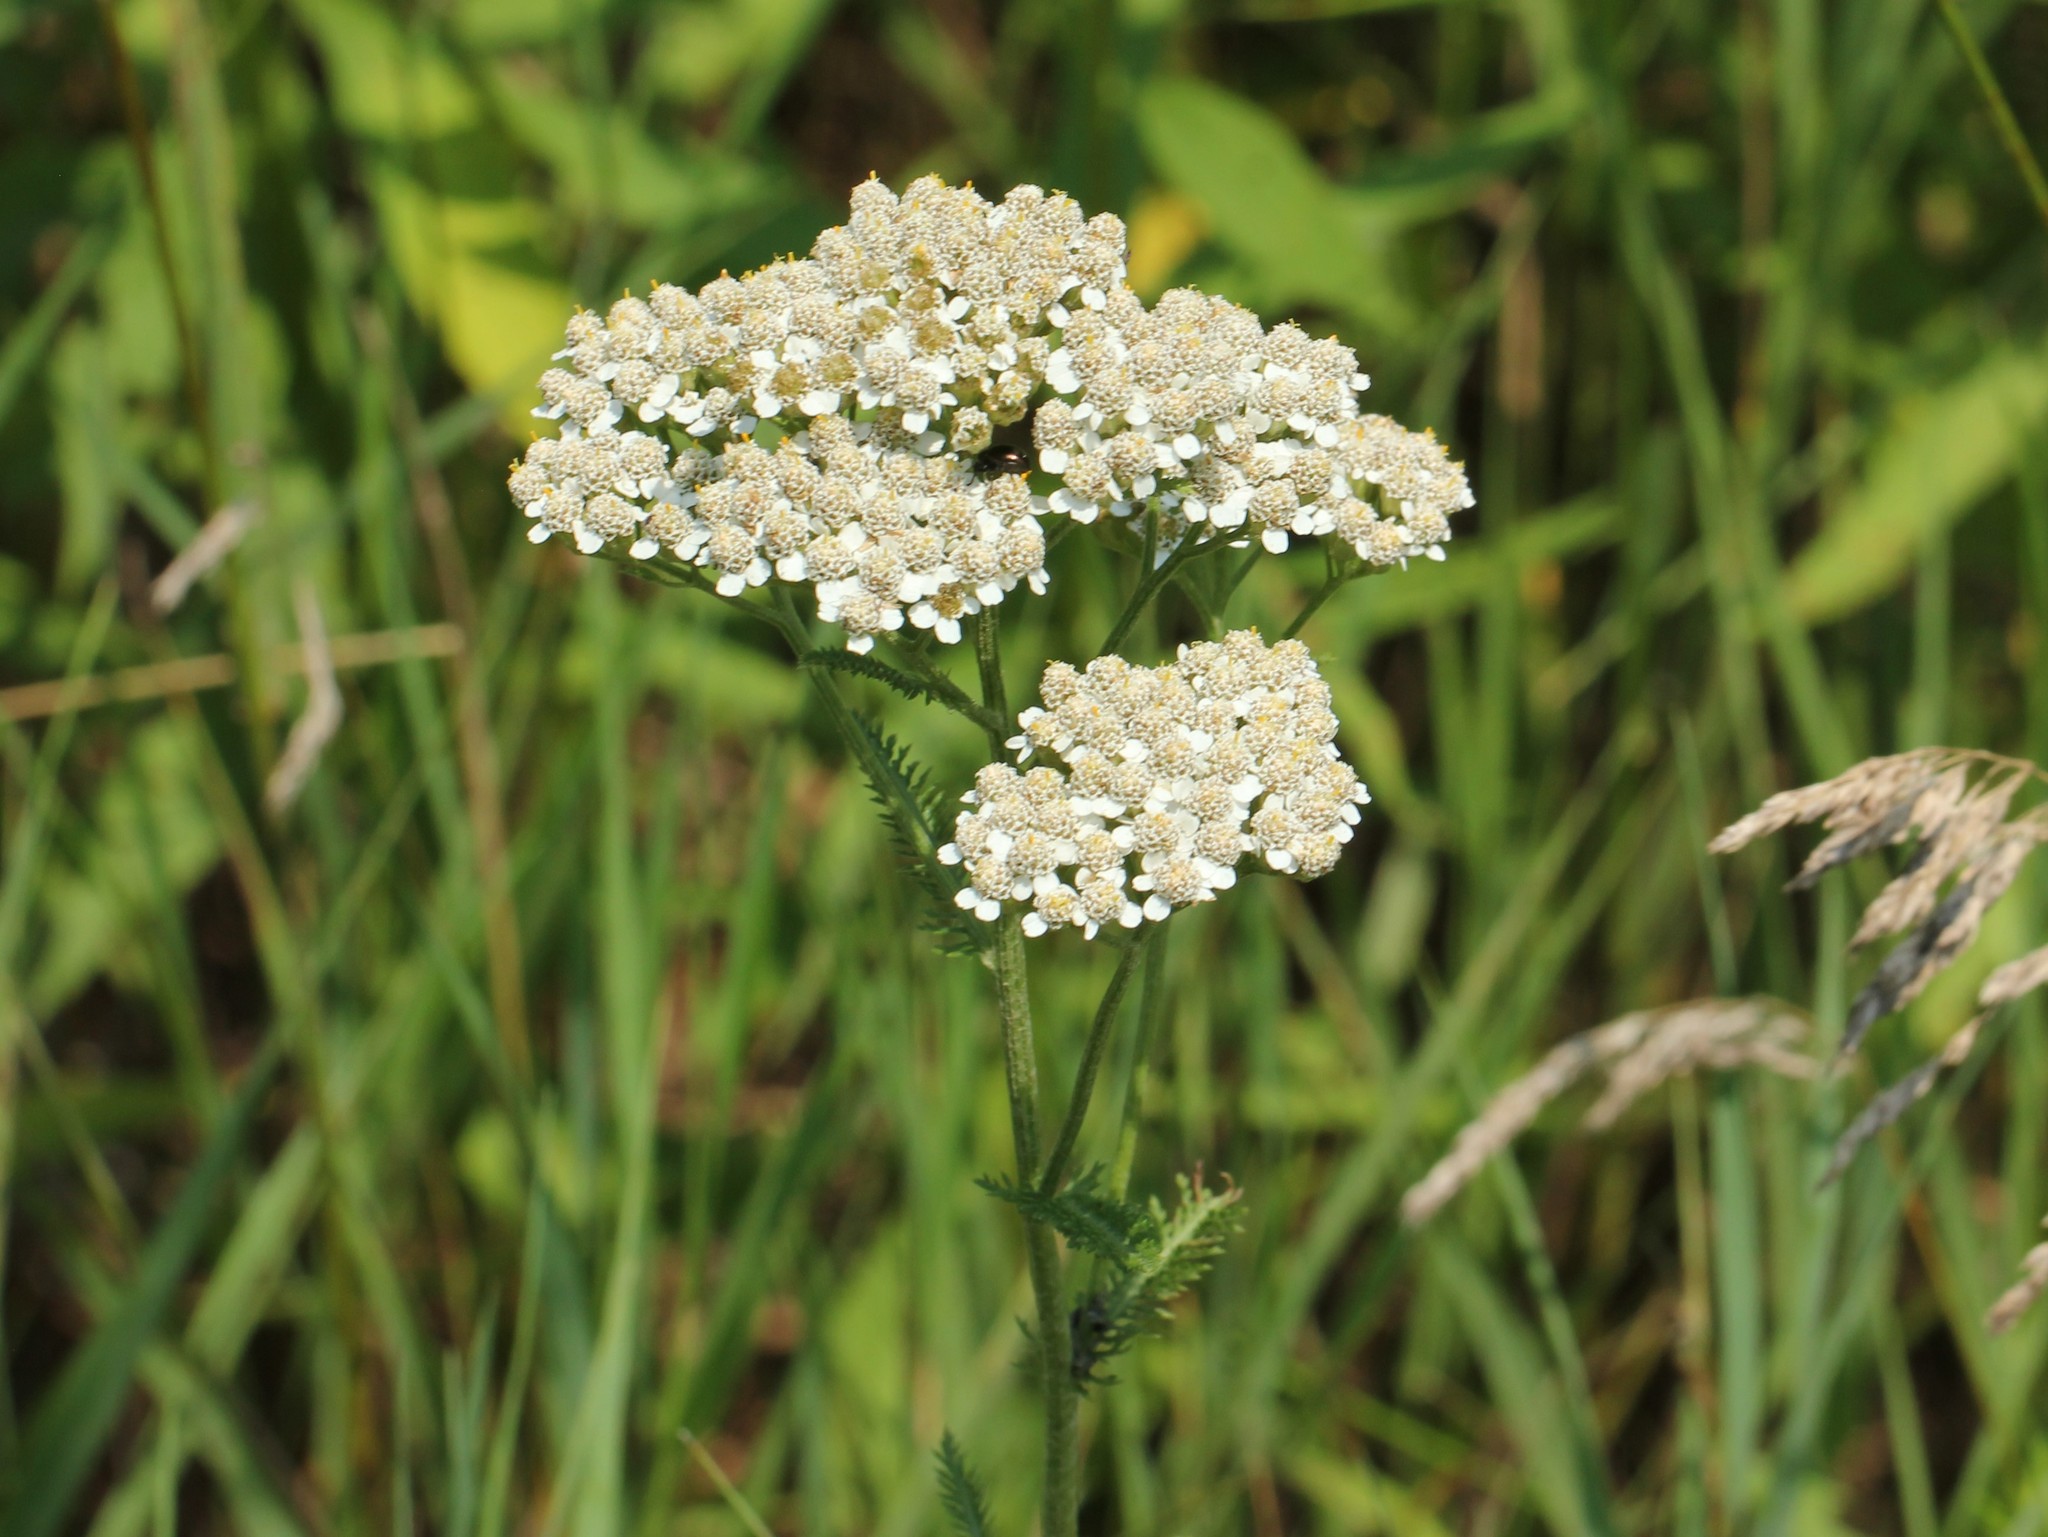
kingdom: Plantae
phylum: Tracheophyta
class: Magnoliopsida
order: Asterales
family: Asteraceae
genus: Achillea
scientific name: Achillea millefolium
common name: Yarrow
